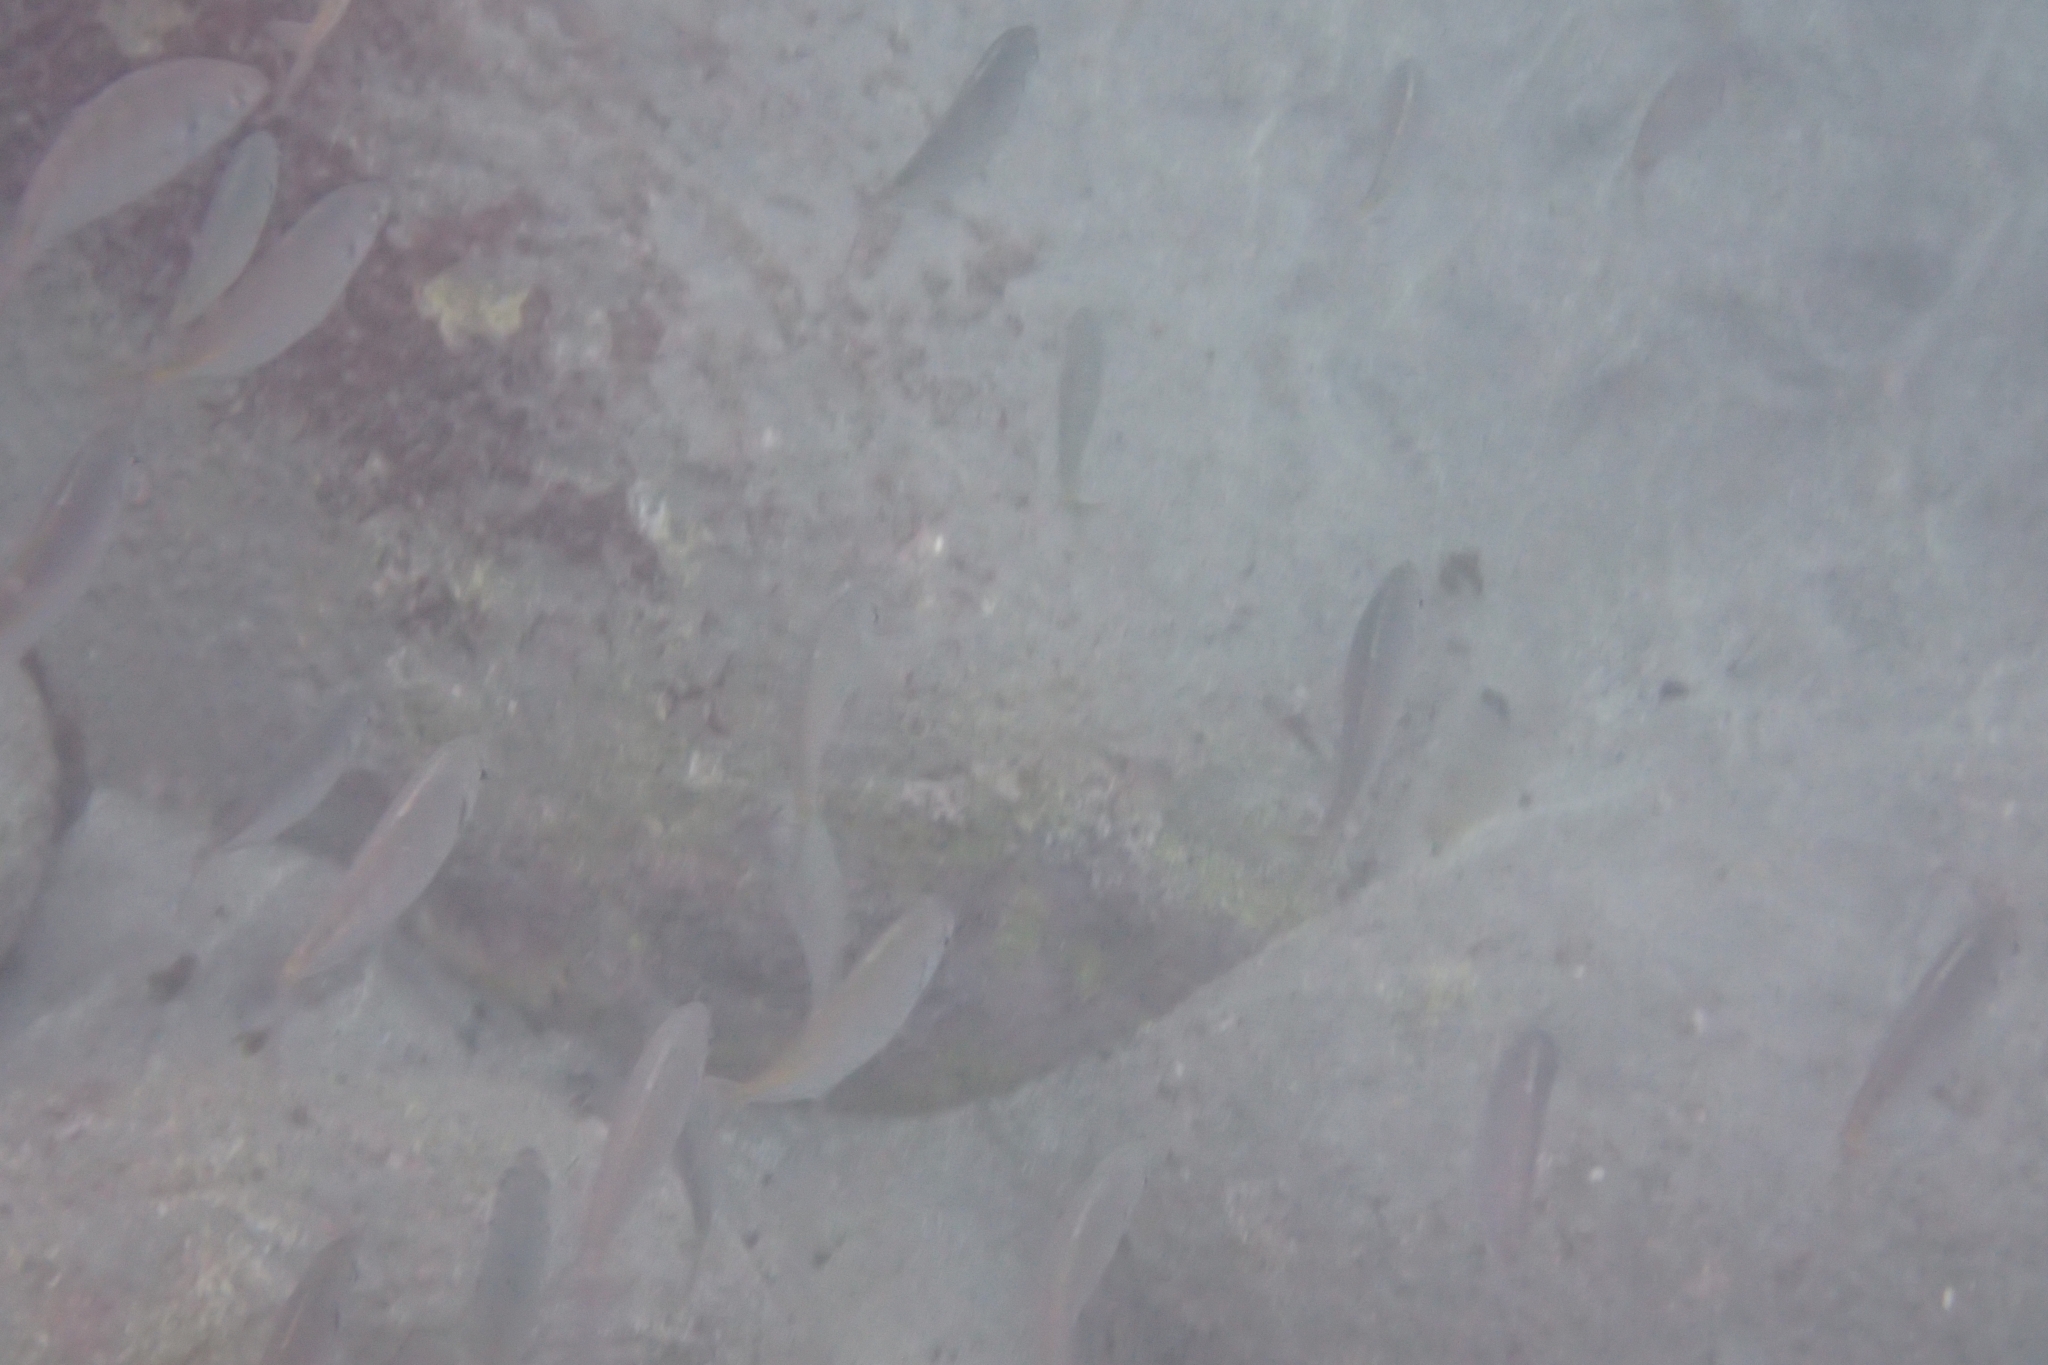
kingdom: Animalia
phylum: Chordata
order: Perciformes
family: Carangidae
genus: Pseudocaranx
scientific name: Pseudocaranx dentex
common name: White trevally
